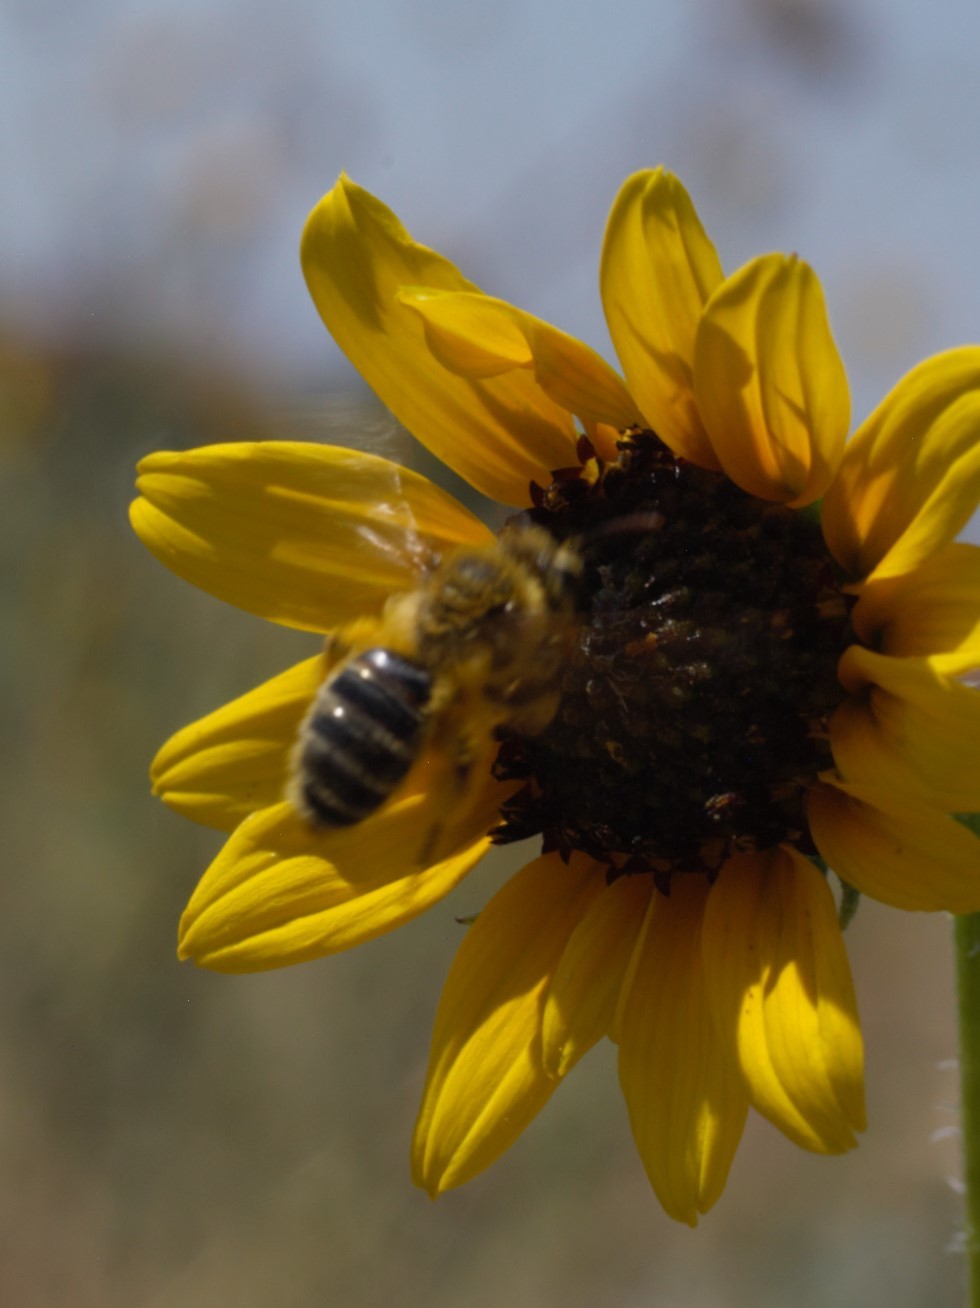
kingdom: Animalia
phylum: Arthropoda
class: Insecta
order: Hymenoptera
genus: Callandrena
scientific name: Callandrena
